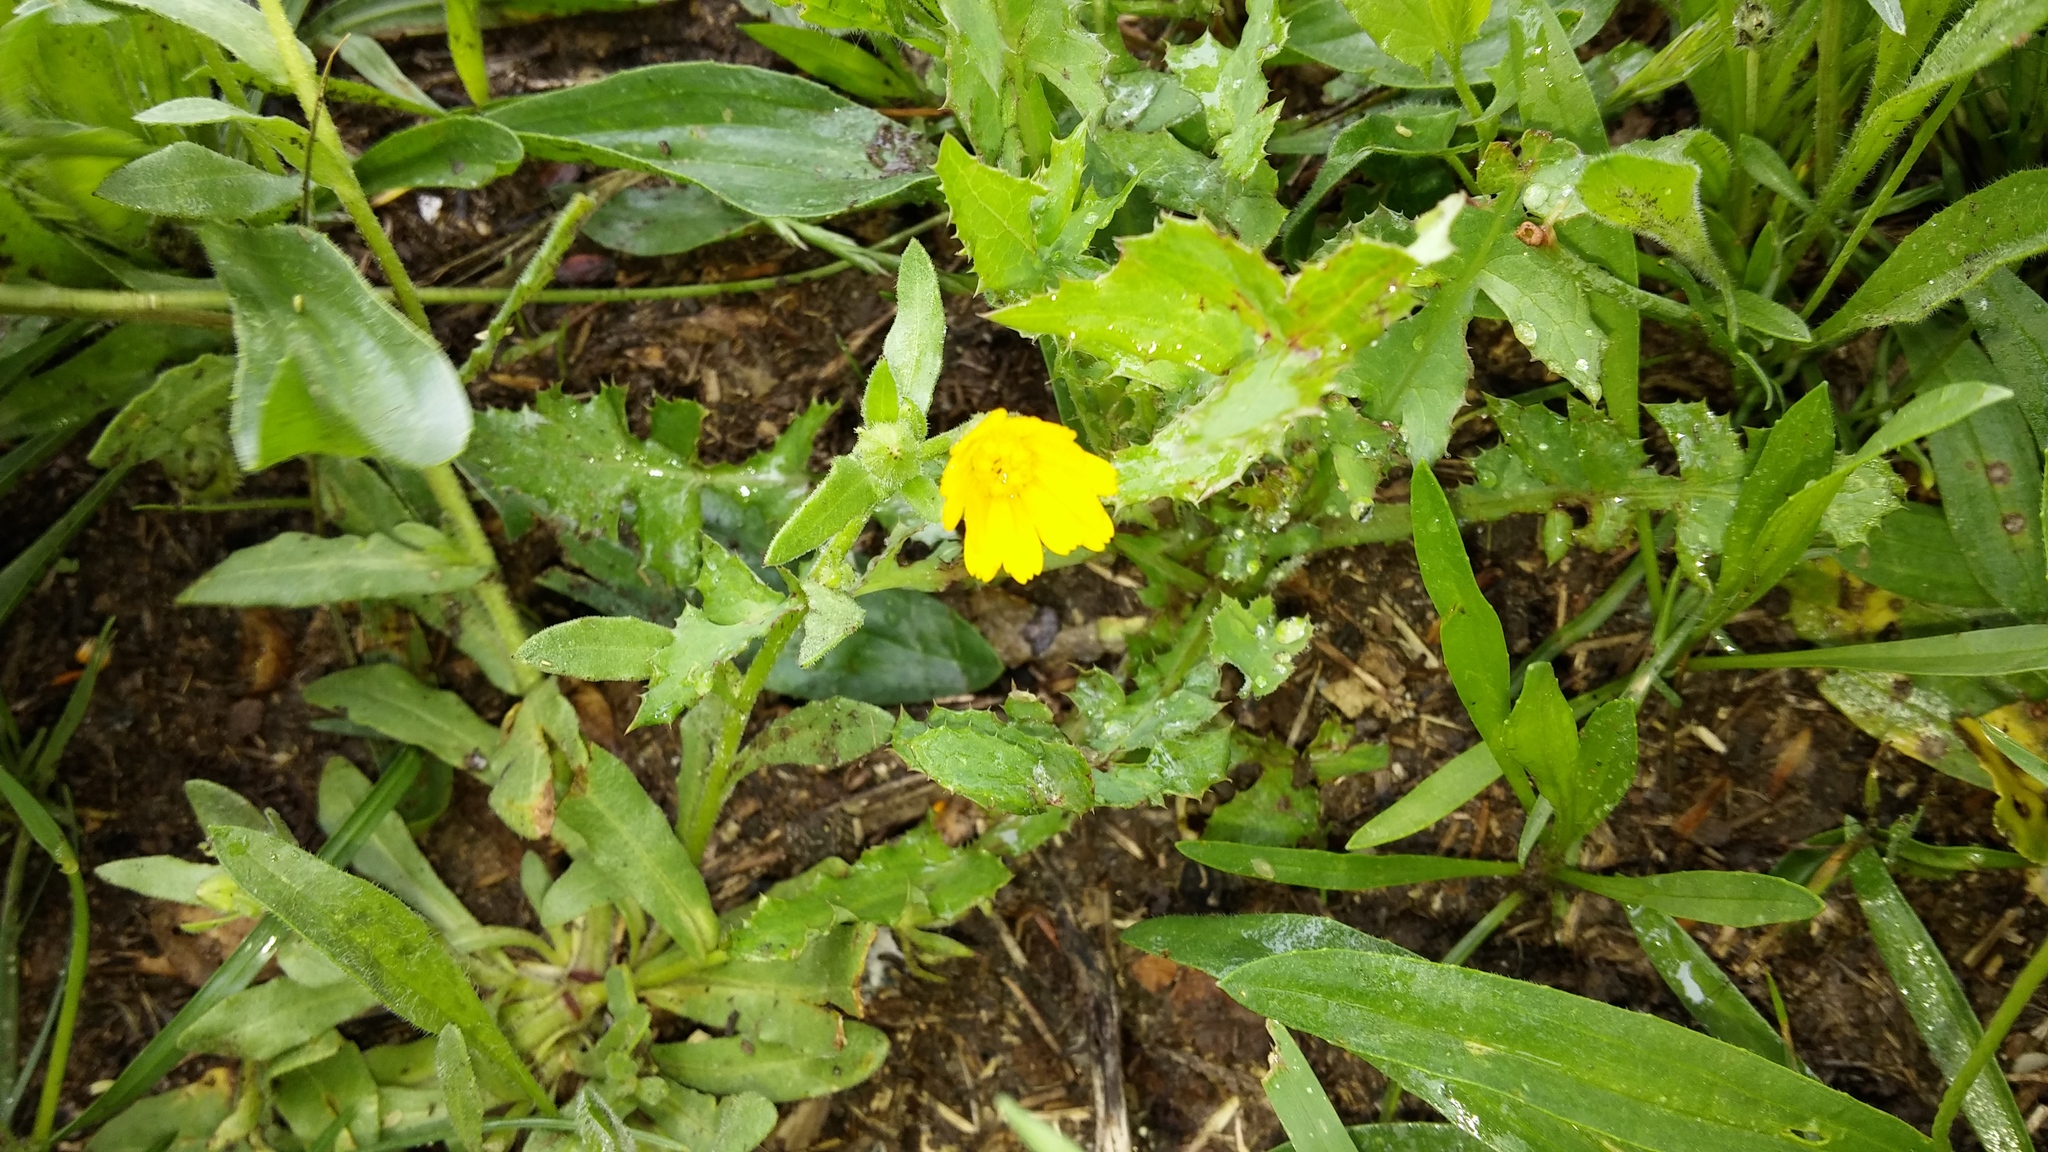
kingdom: Plantae
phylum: Tracheophyta
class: Magnoliopsida
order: Asterales
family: Asteraceae
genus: Calendula
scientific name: Calendula arvensis
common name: Field marigold
